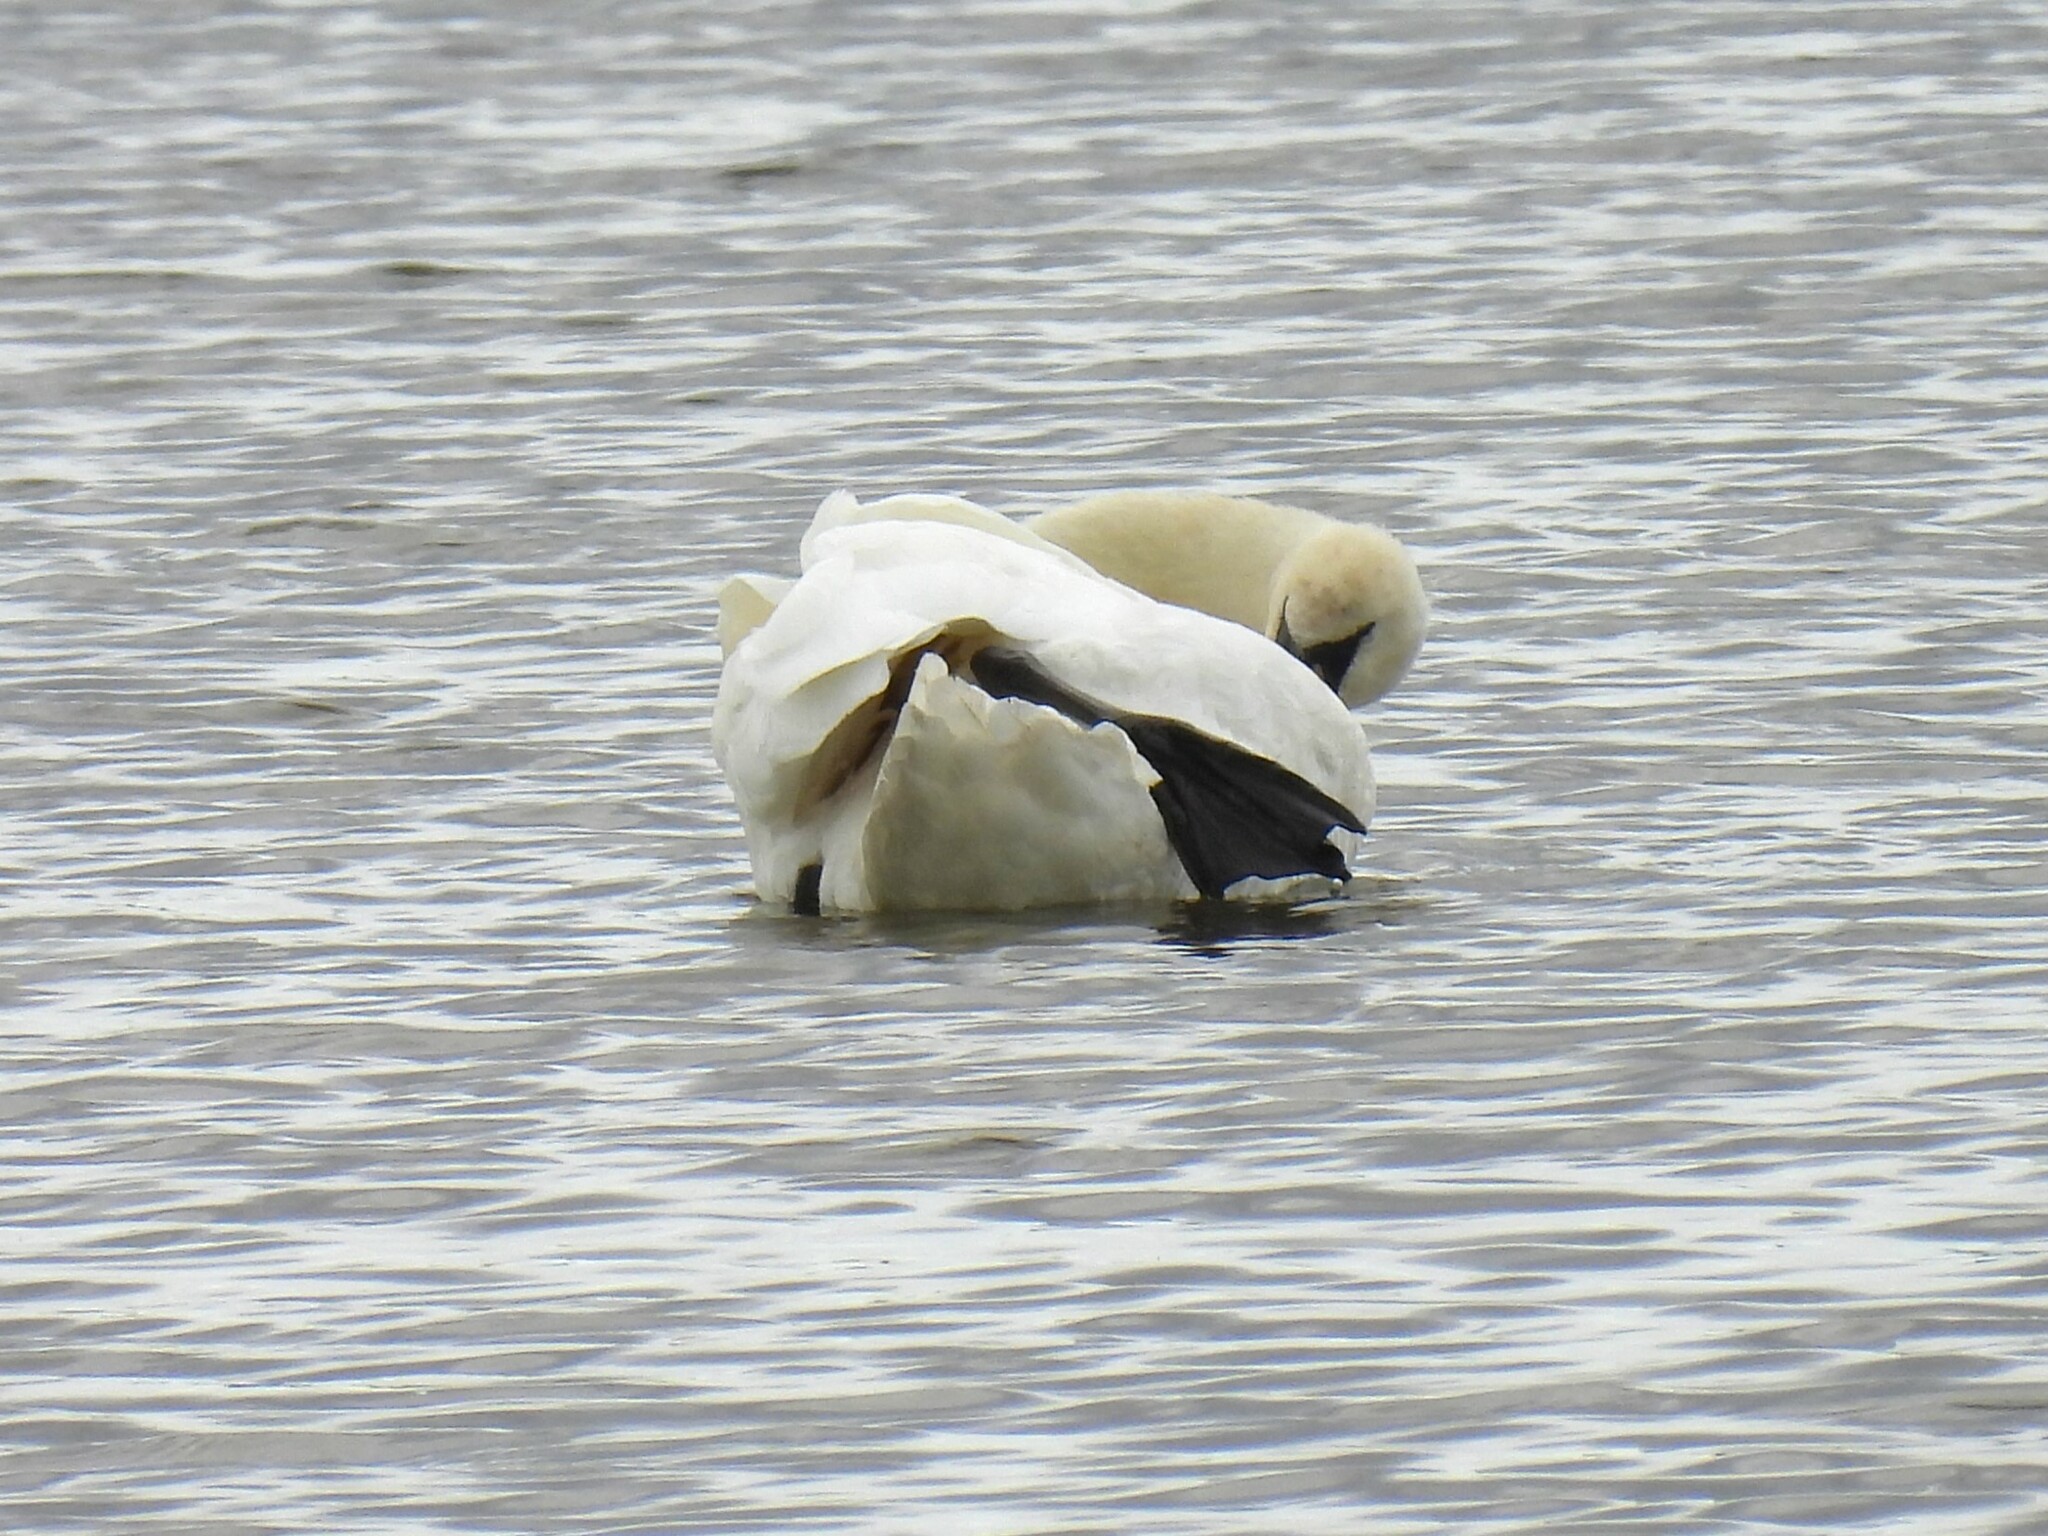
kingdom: Animalia
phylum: Chordata
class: Aves
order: Anseriformes
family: Anatidae
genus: Cygnus
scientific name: Cygnus olor
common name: Mute swan
